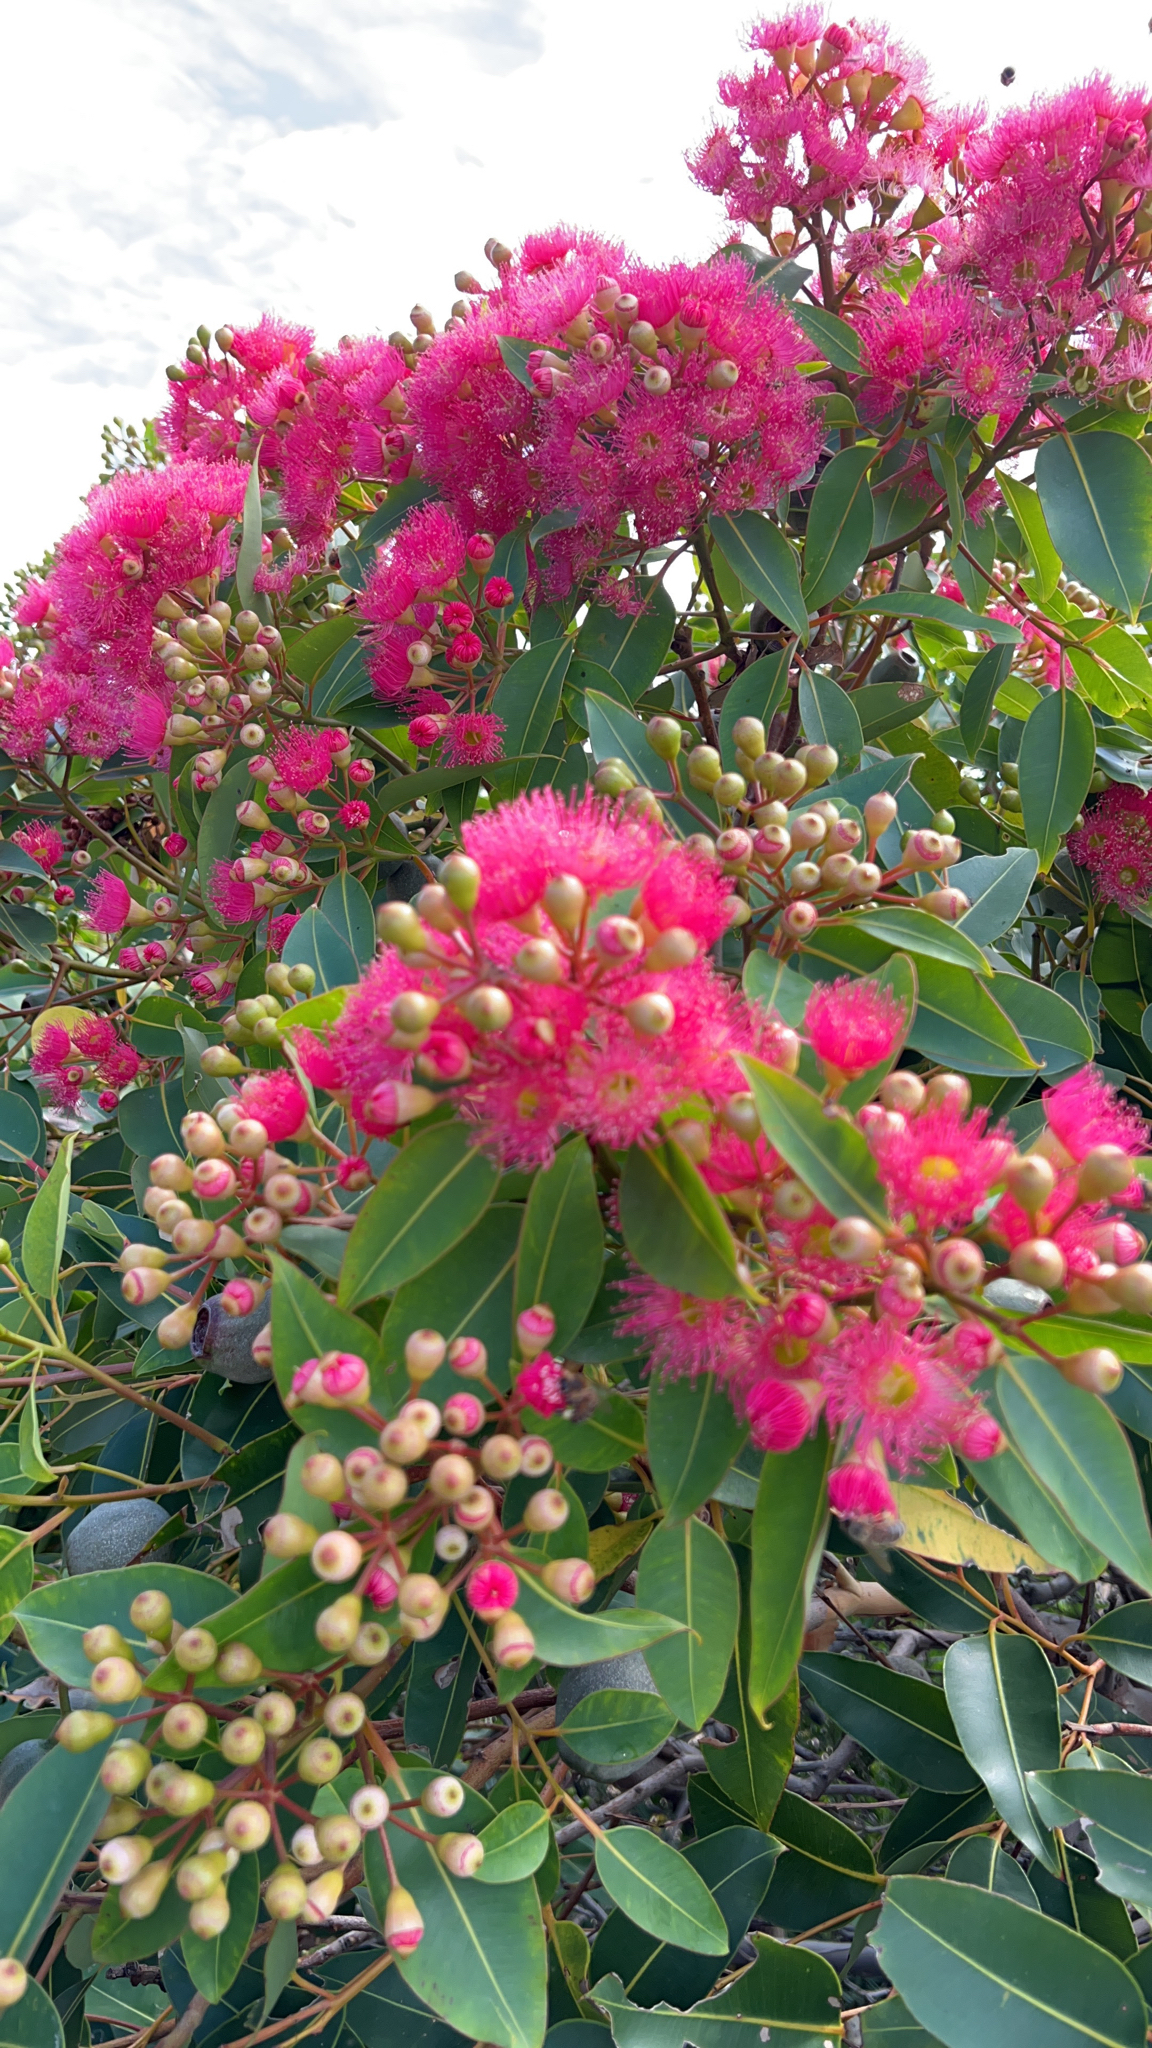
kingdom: Plantae
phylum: Tracheophyta
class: Magnoliopsida
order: Myrtales
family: Myrtaceae
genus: Corymbia
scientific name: Corymbia ficifolia
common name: Redflower gum
